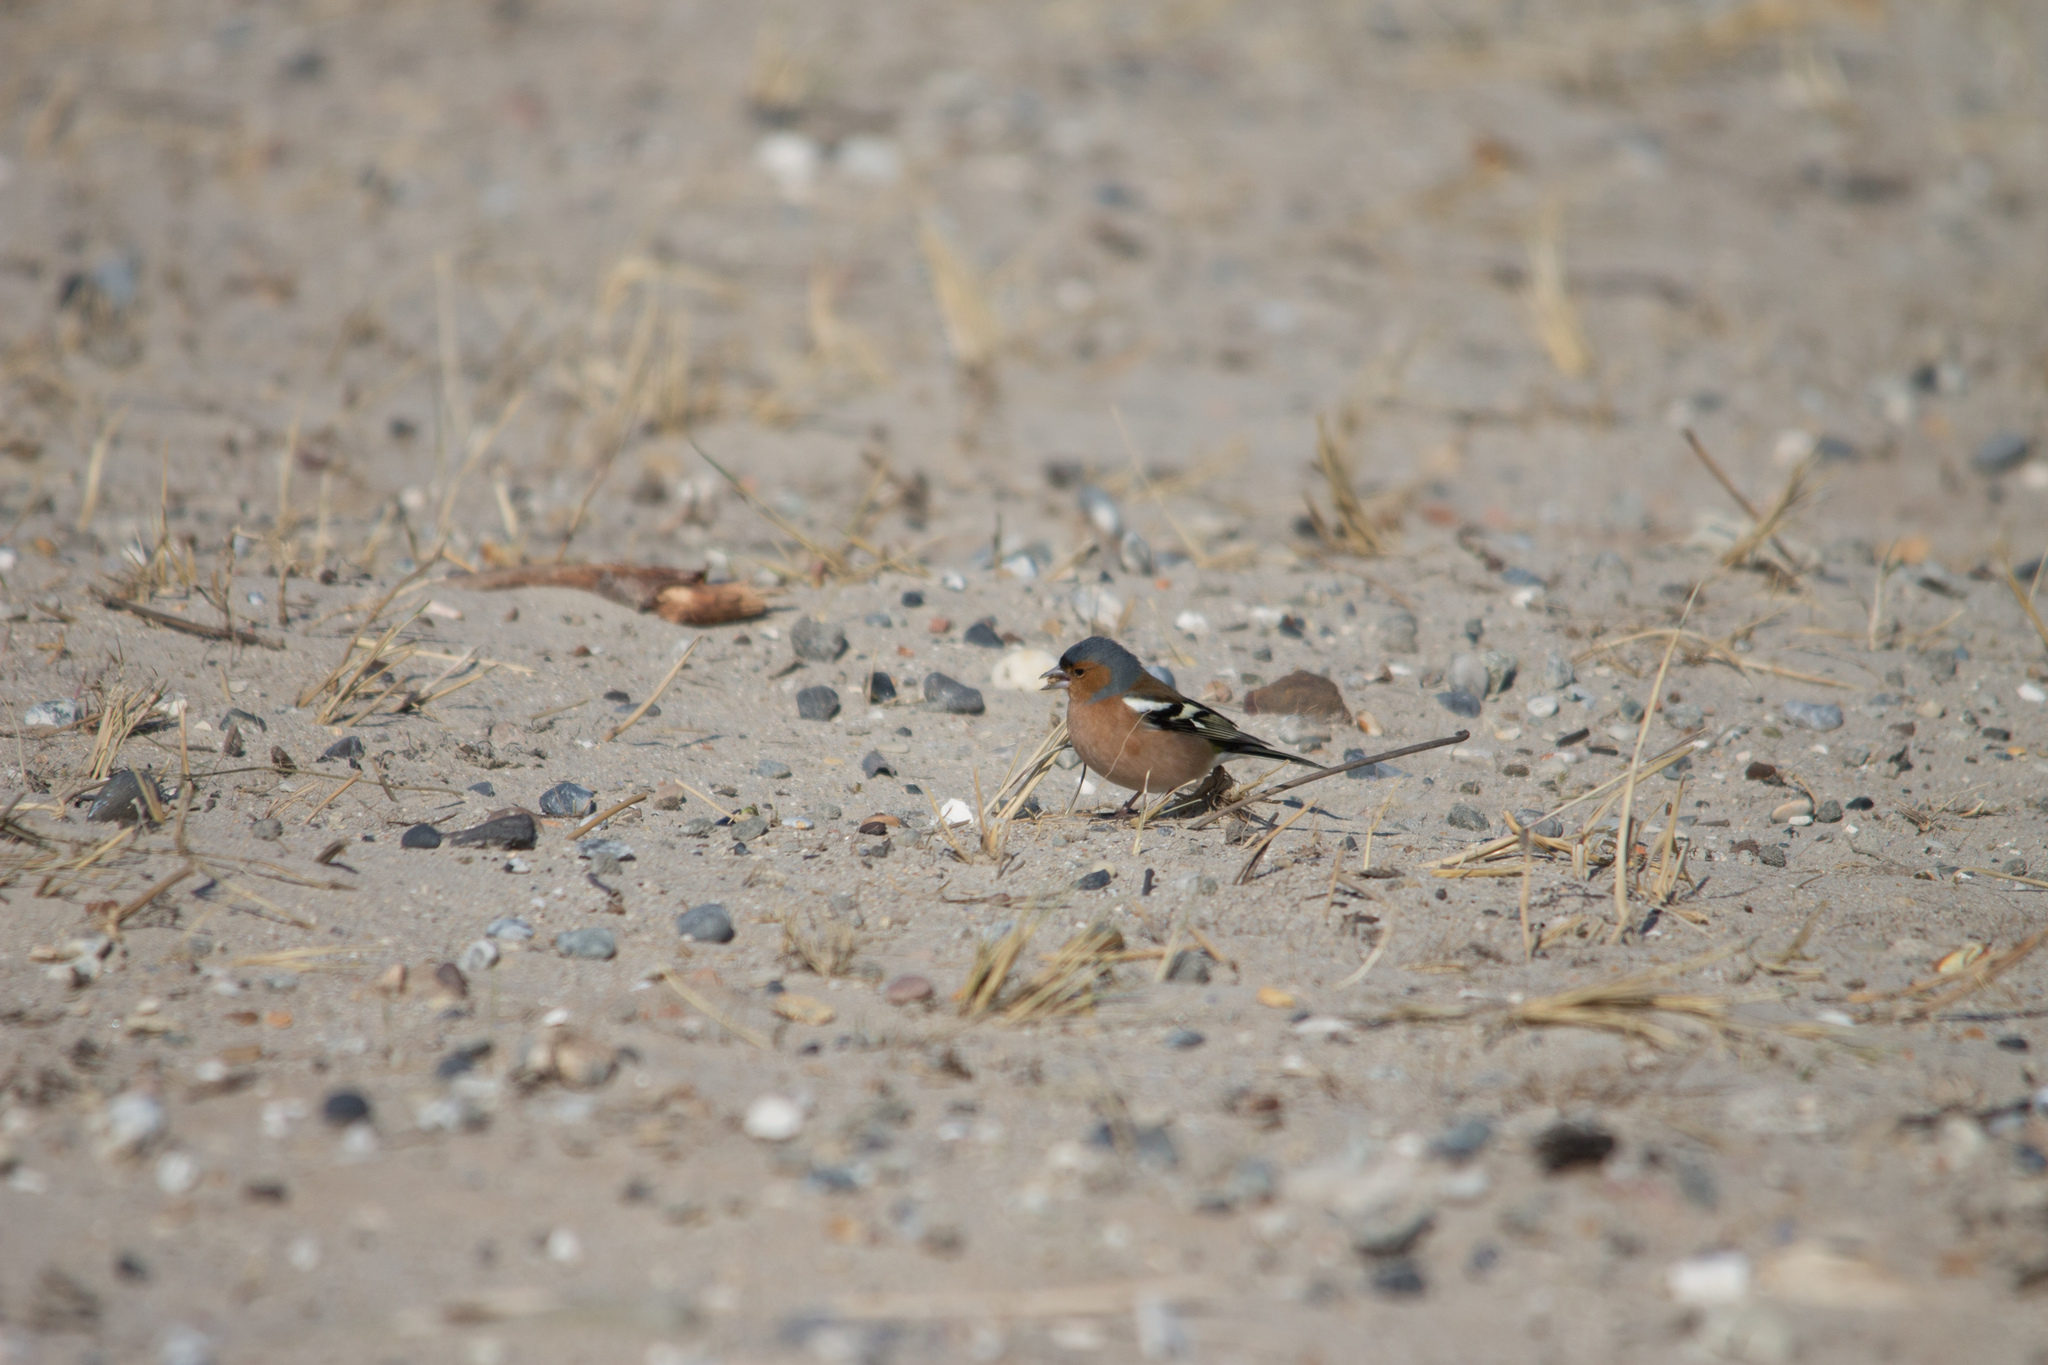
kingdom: Animalia
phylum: Chordata
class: Aves
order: Passeriformes
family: Fringillidae
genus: Fringilla
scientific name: Fringilla coelebs
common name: Common chaffinch
